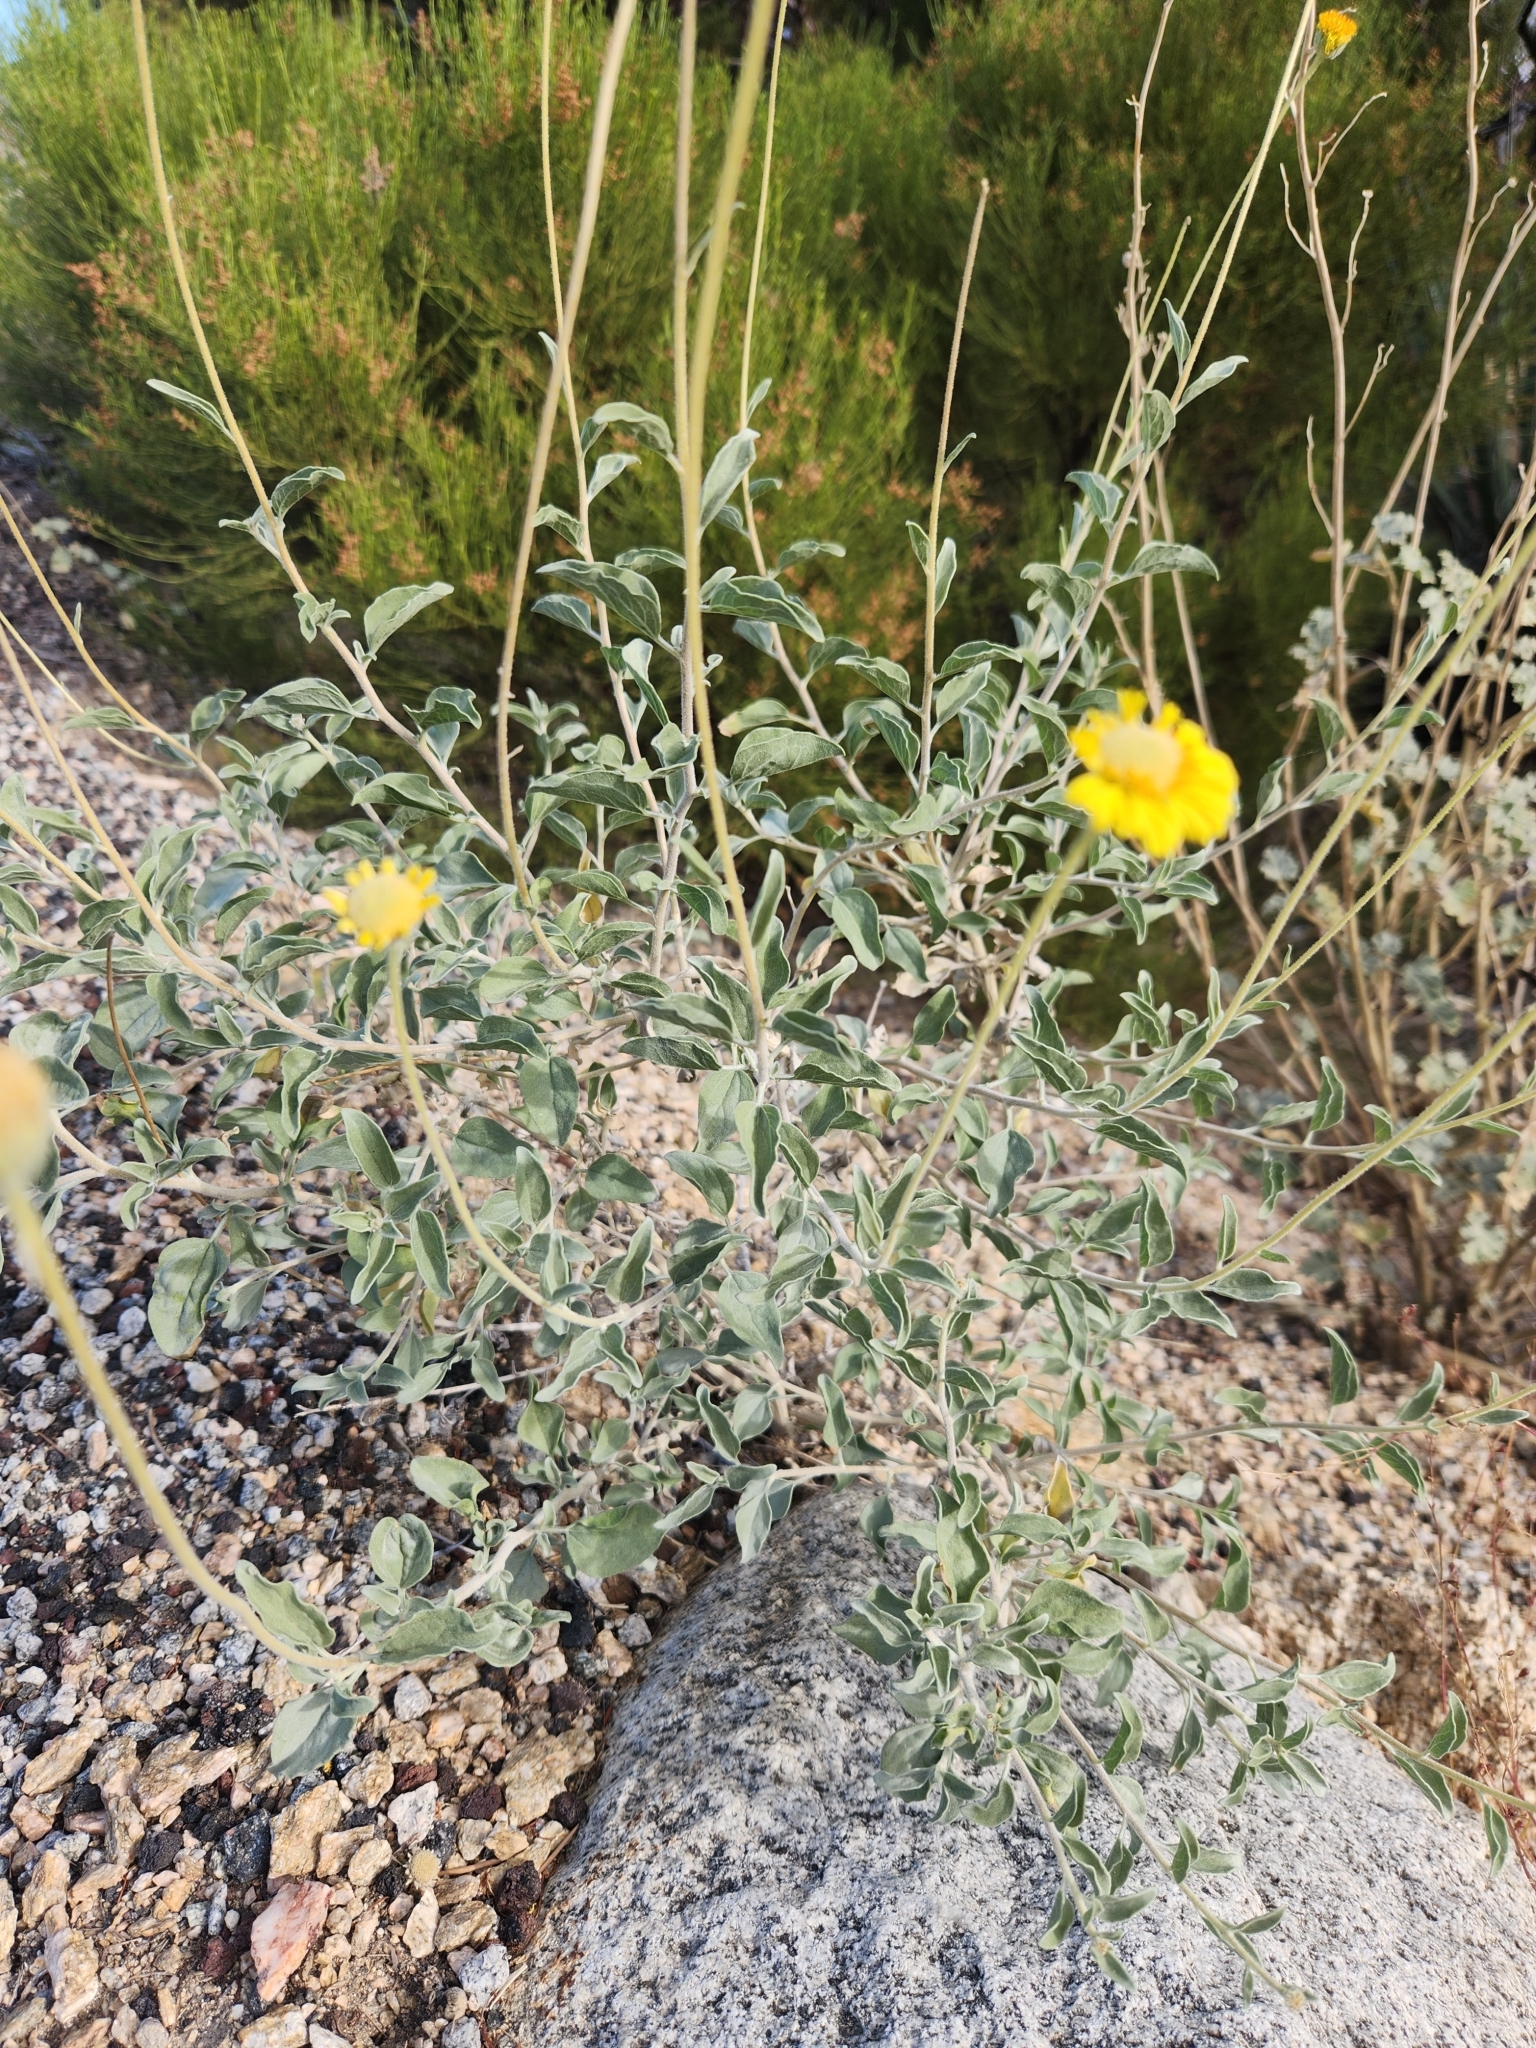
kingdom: Plantae
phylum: Tracheophyta
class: Magnoliopsida
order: Asterales
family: Asteraceae
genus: Encelia
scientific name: Encelia actoni
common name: Acton encelia
